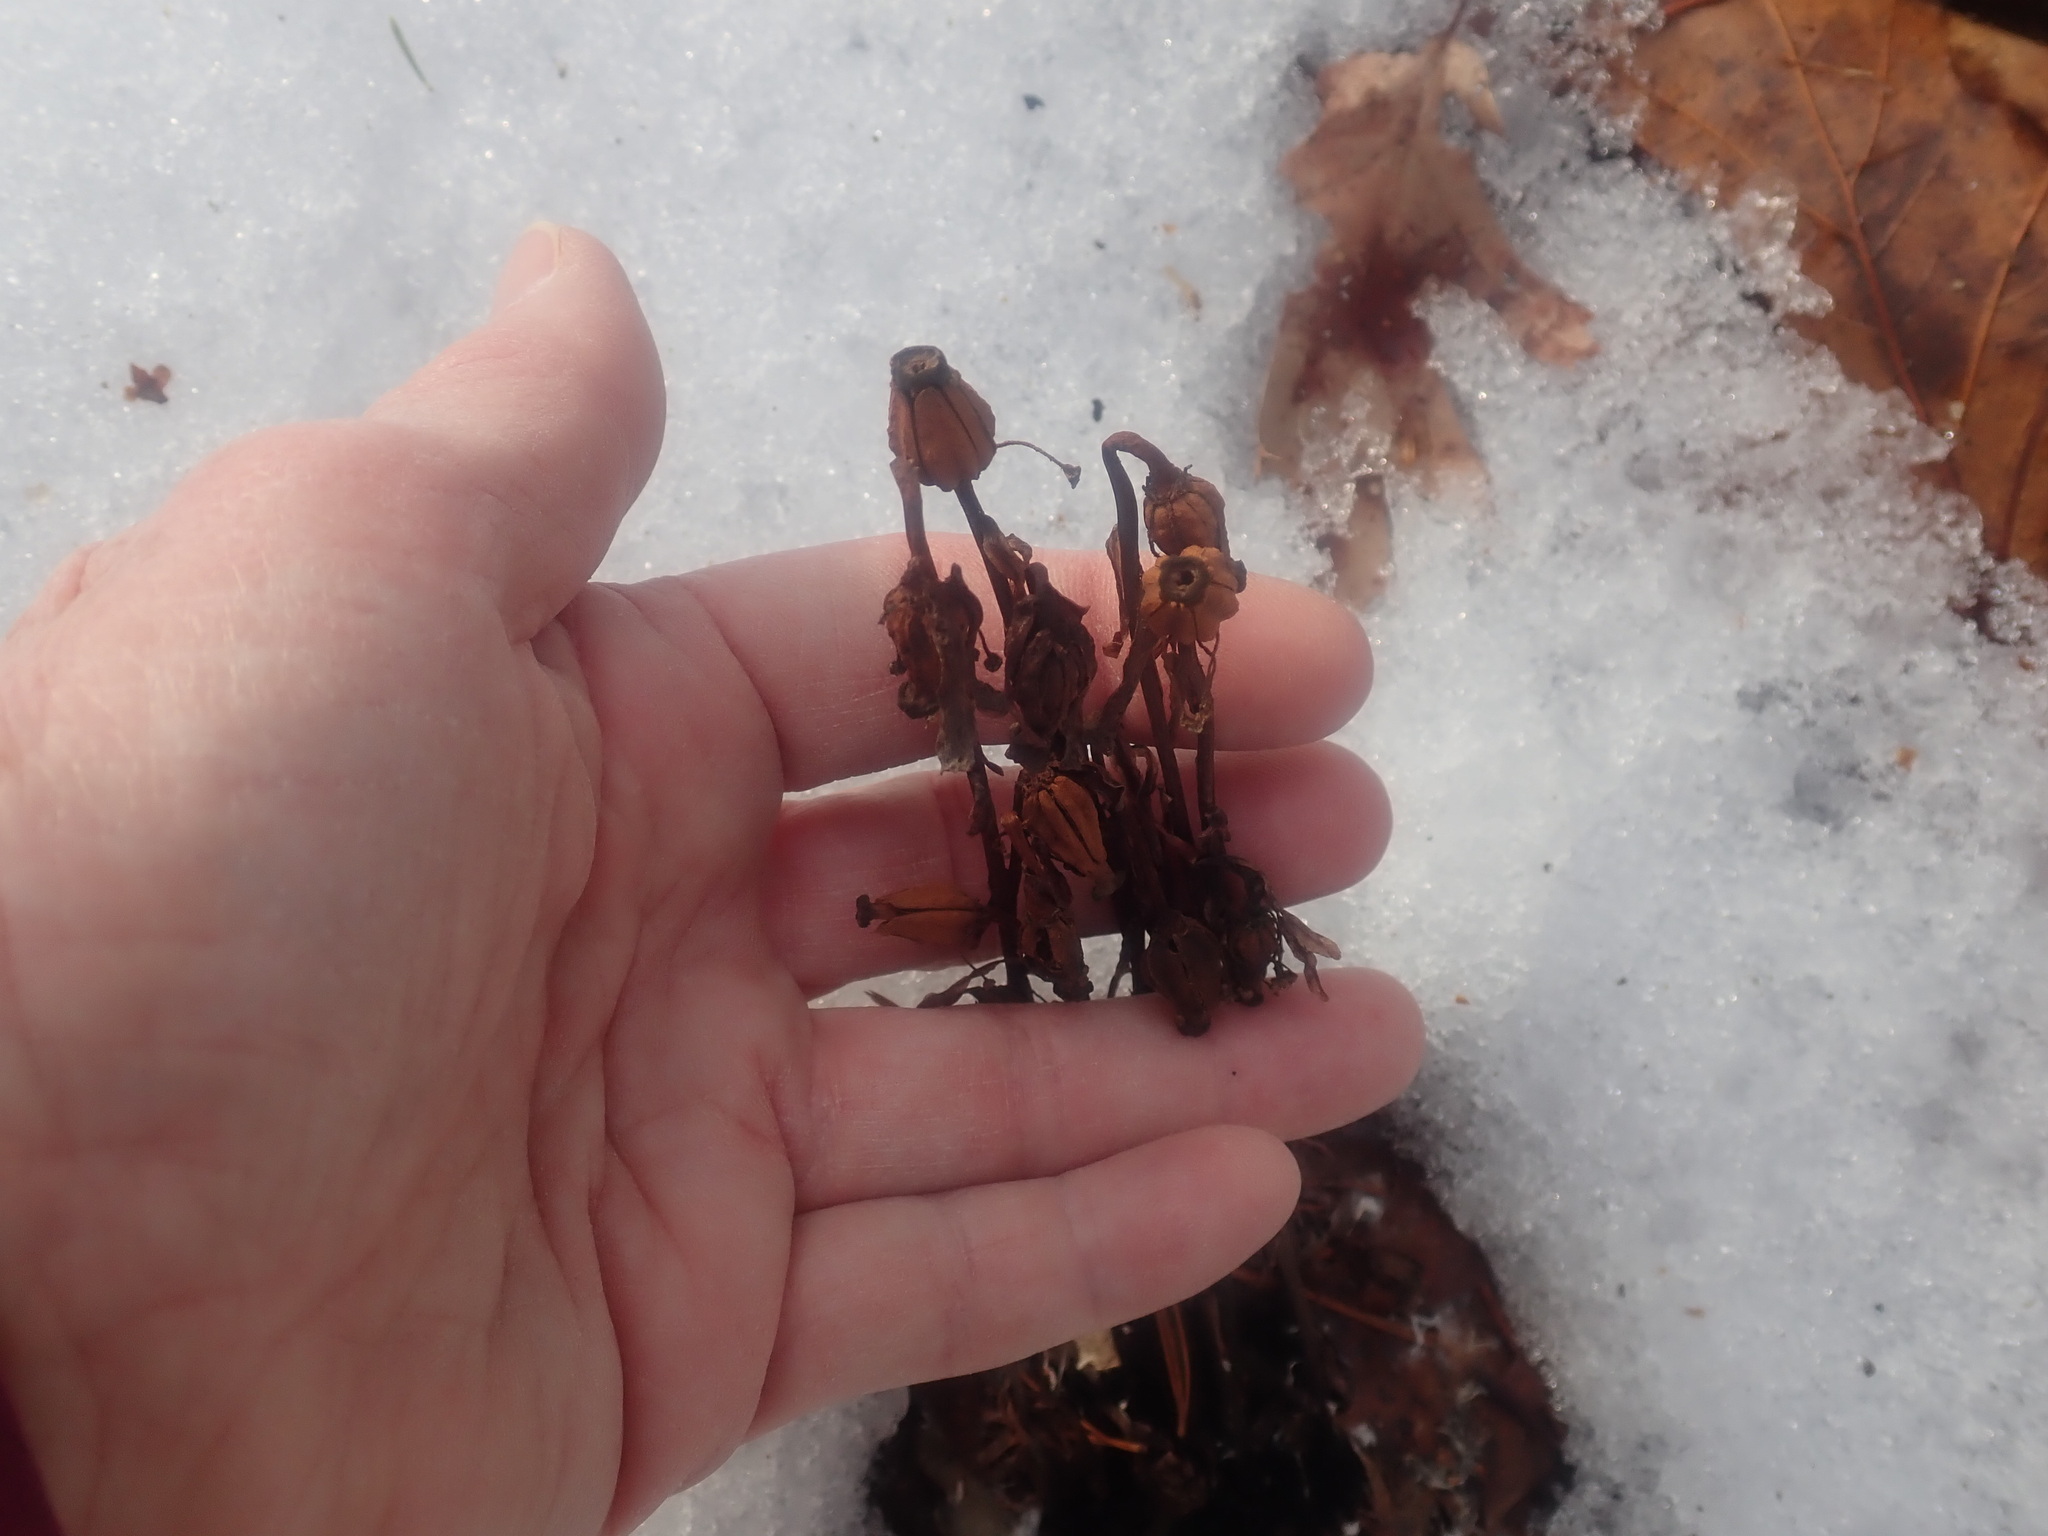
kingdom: Plantae
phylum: Tracheophyta
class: Magnoliopsida
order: Ericales
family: Ericaceae
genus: Monotropa
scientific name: Monotropa uniflora
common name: Convulsion root
